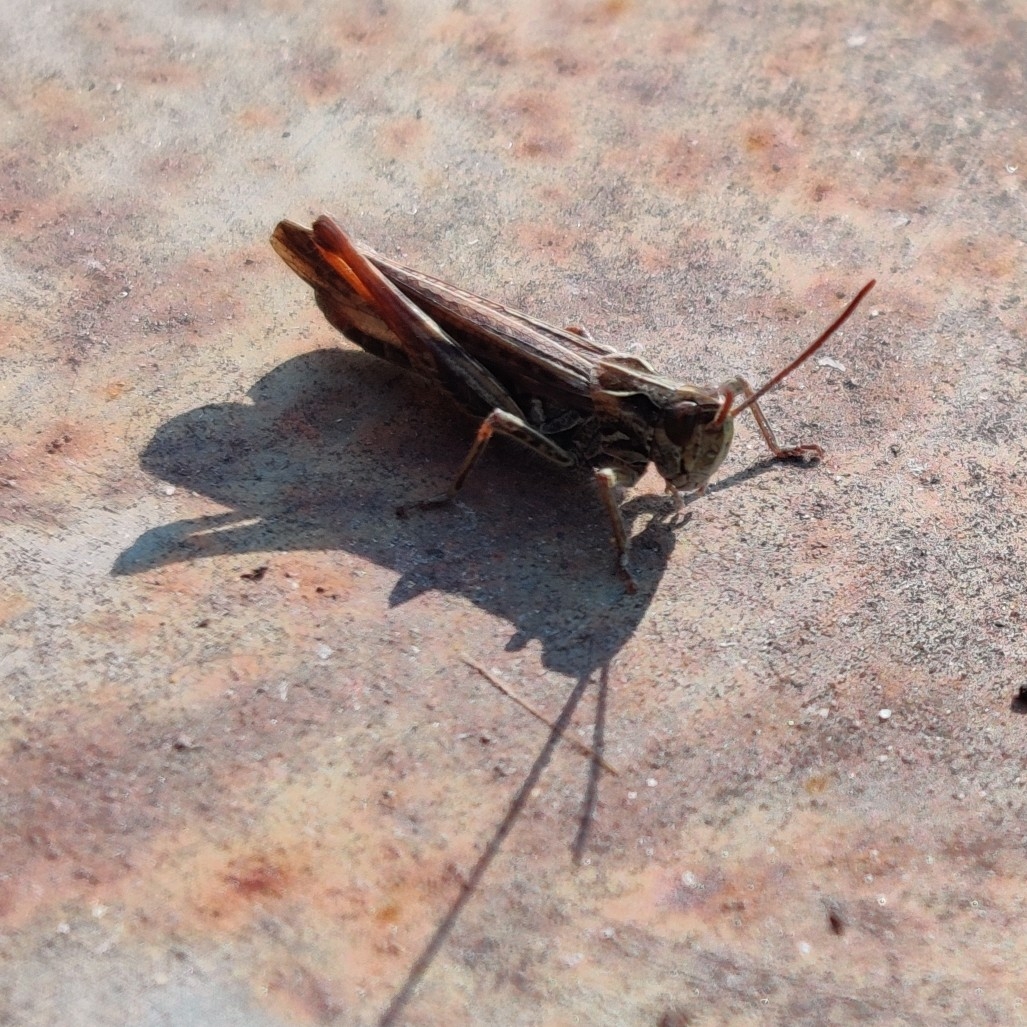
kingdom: Animalia
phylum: Arthropoda
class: Insecta
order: Orthoptera
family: Acrididae
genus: Chorthippus
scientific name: Chorthippus biguttulus
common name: Bow-winged grasshopper
